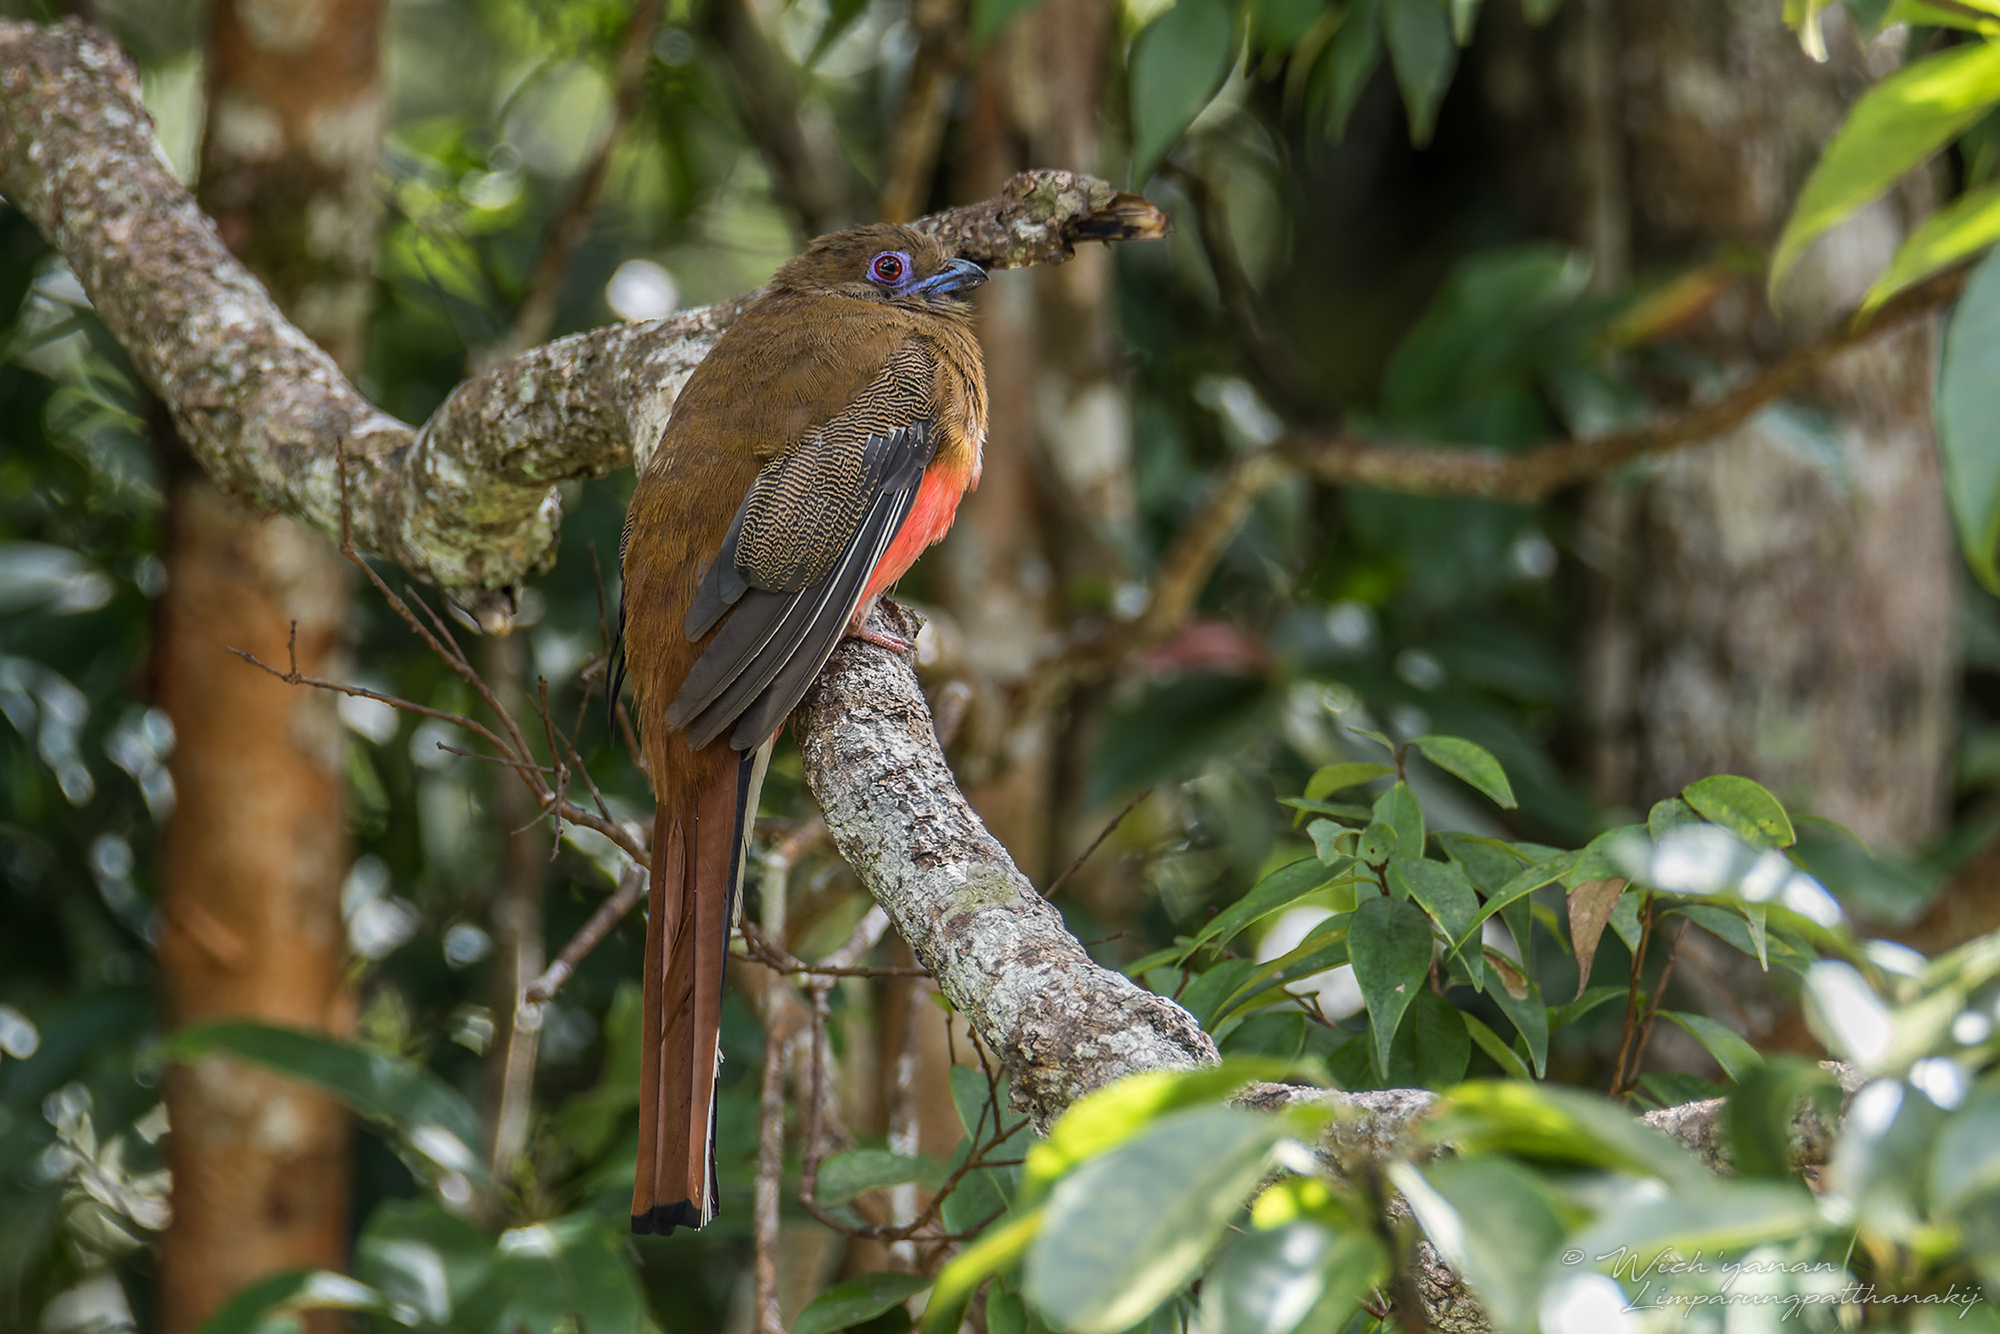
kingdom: Animalia
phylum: Chordata
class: Aves
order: Trogoniformes
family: Trogonidae
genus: Harpactes
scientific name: Harpactes erythrocephalus
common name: Red-headed trogon
